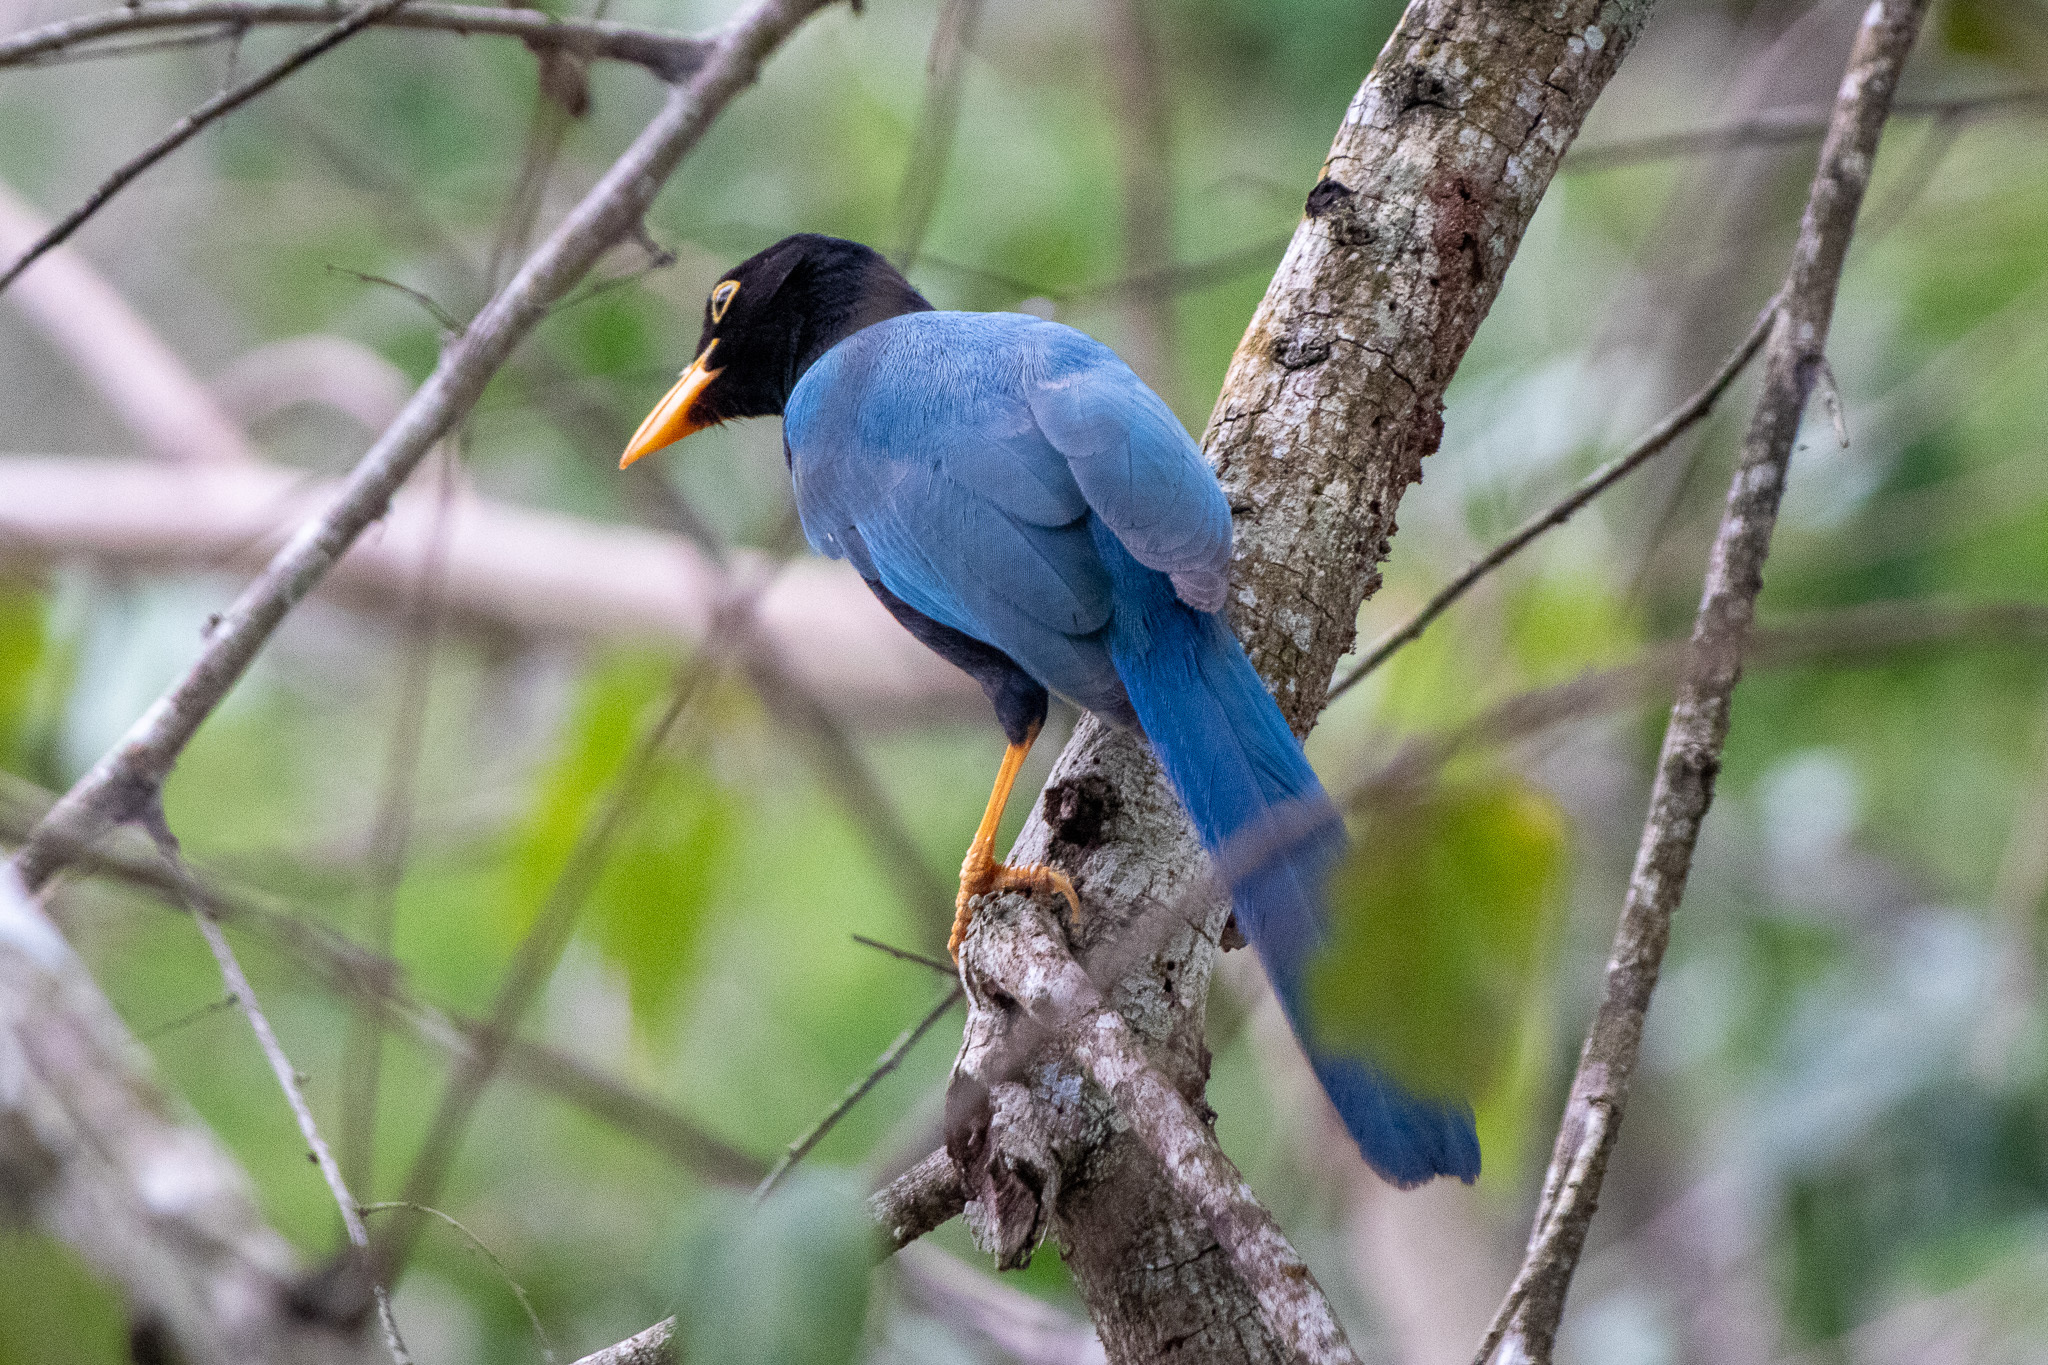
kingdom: Animalia
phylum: Chordata
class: Aves
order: Passeriformes
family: Corvidae
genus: Cyanocorax
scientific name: Cyanocorax yucatanicus
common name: Yucatan jay
